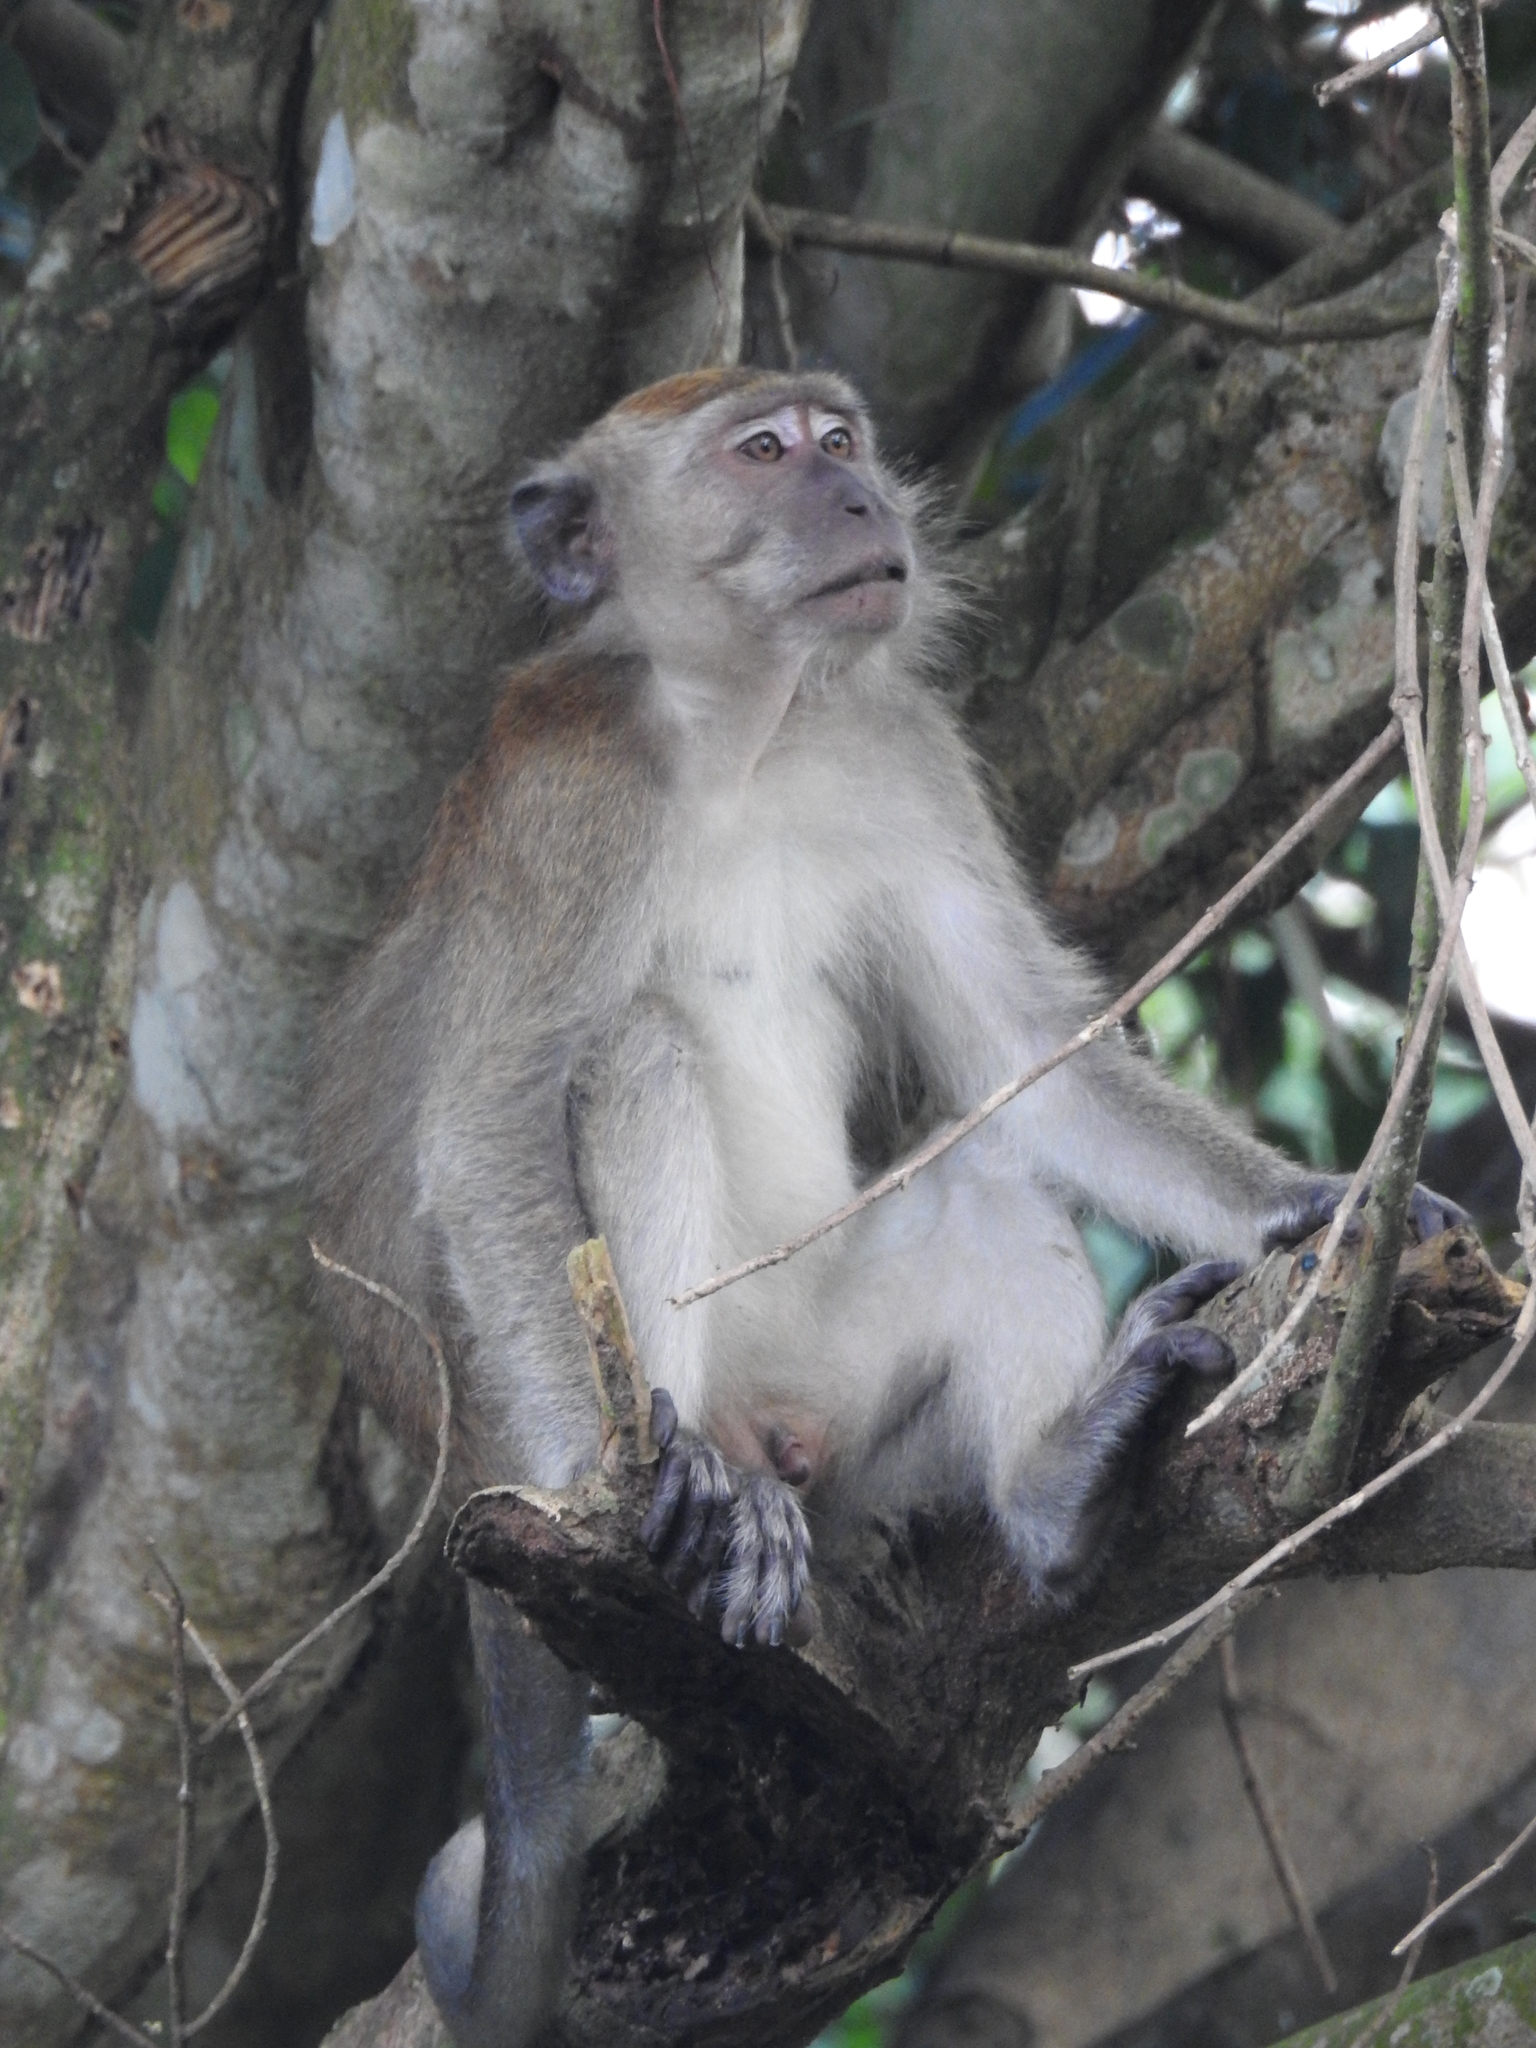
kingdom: Animalia
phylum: Chordata
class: Mammalia
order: Primates
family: Cercopithecidae
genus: Macaca
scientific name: Macaca fascicularis
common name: Crab-eating macaque
